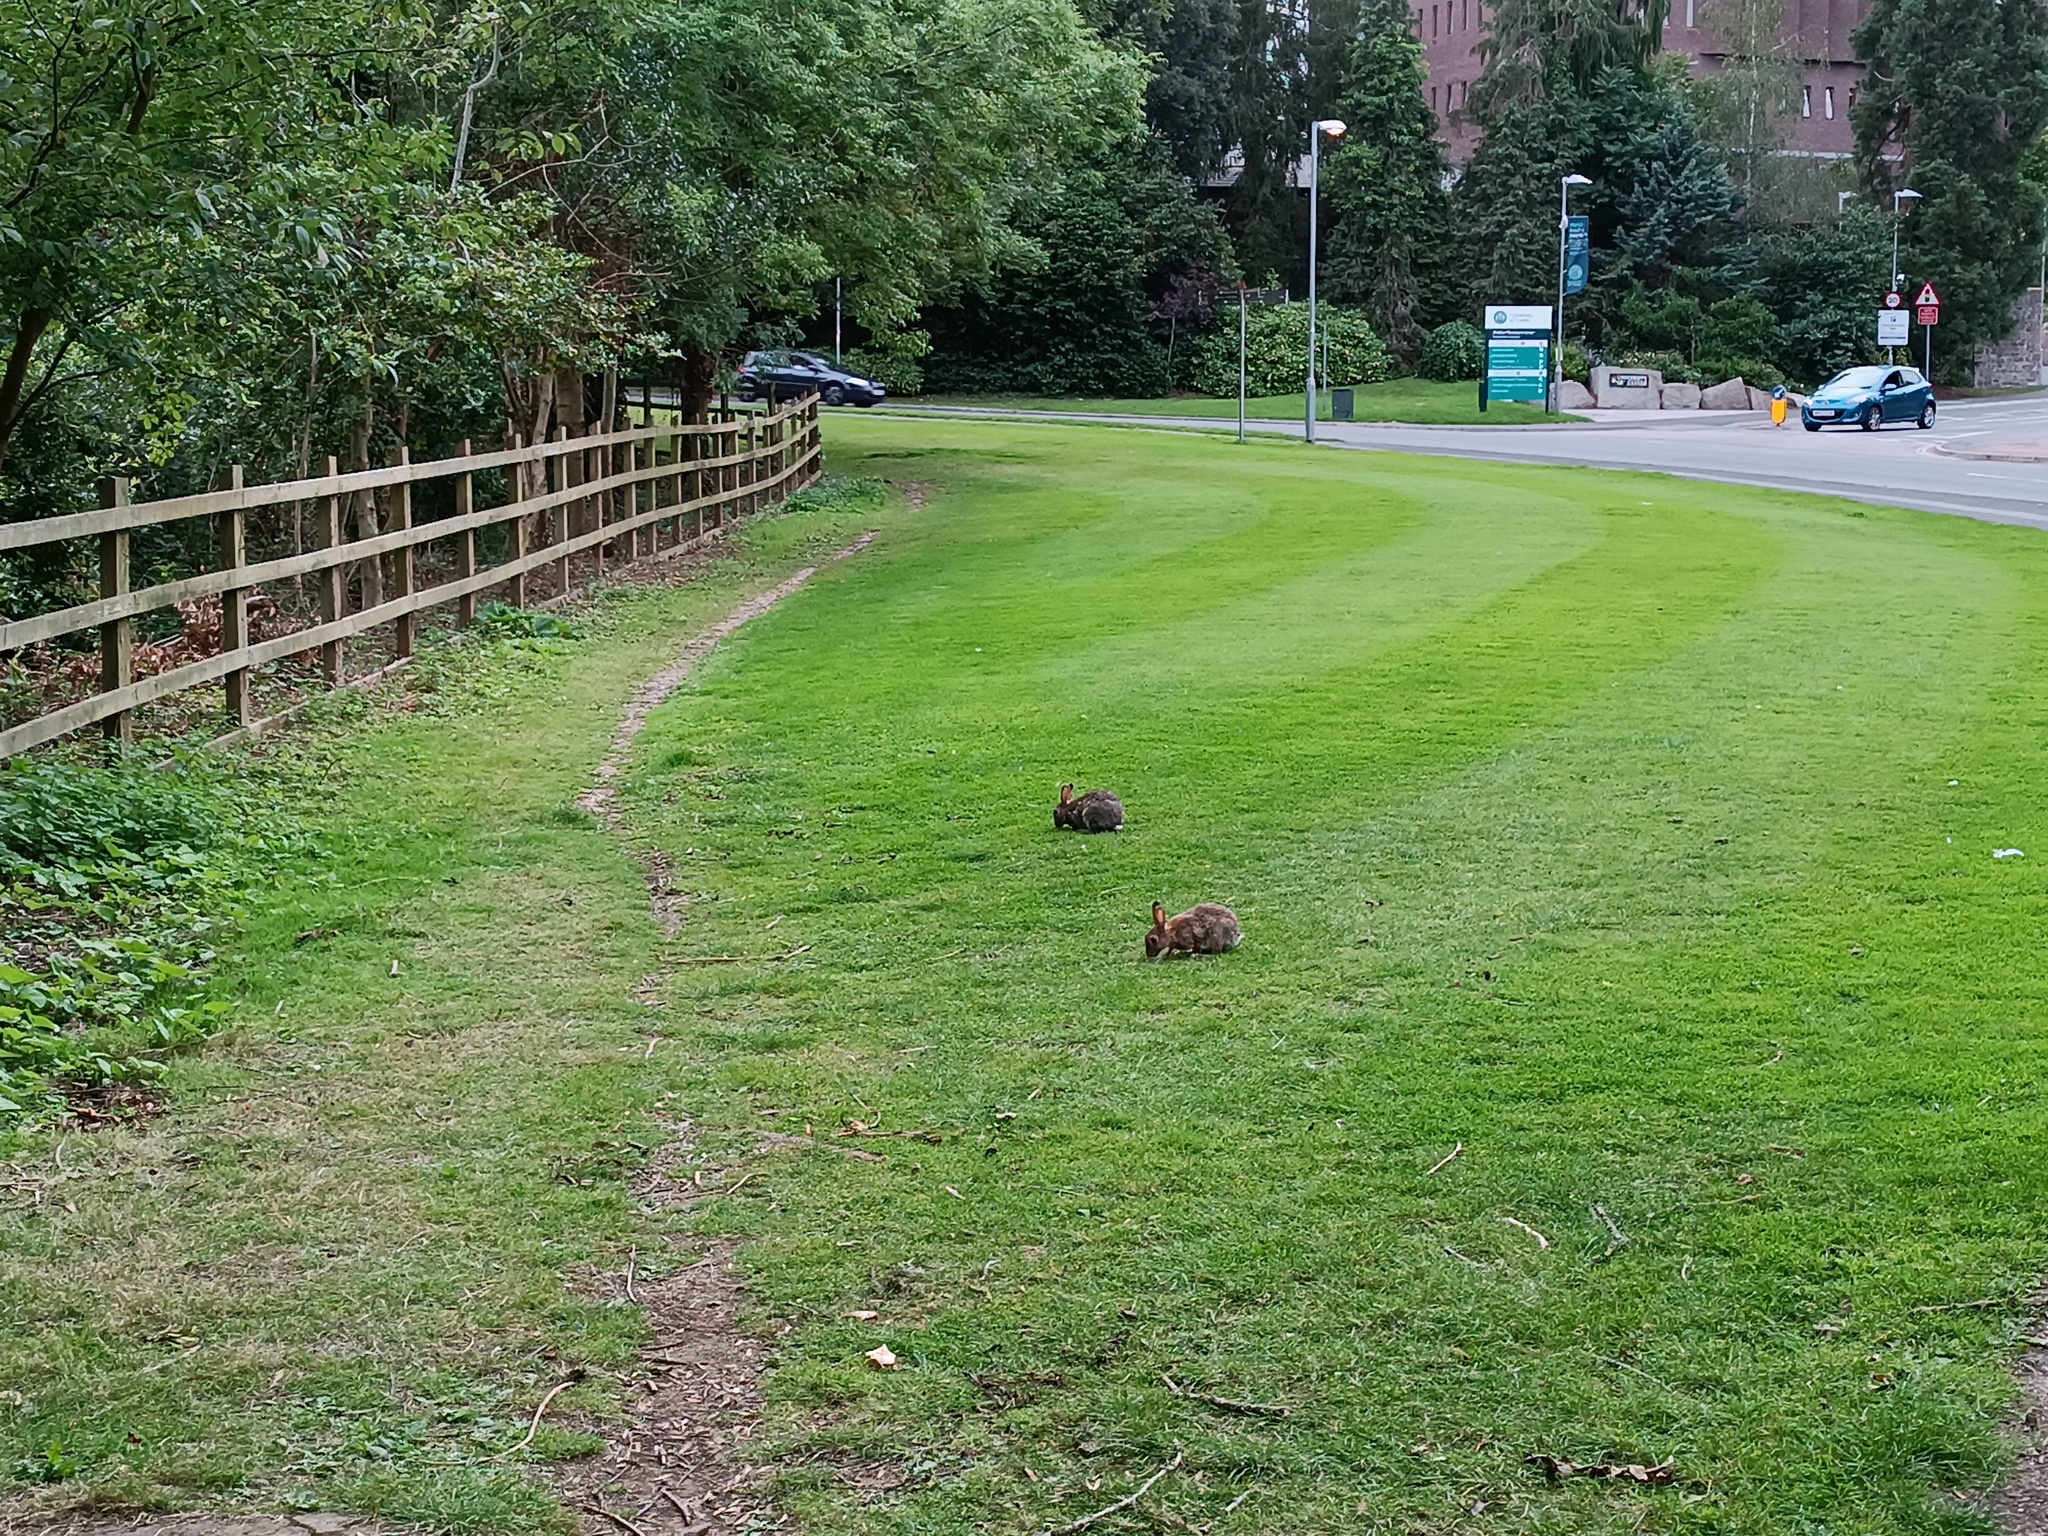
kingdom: Animalia
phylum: Chordata
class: Mammalia
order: Lagomorpha
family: Leporidae
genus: Oryctolagus
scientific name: Oryctolagus cuniculus
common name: European rabbit
